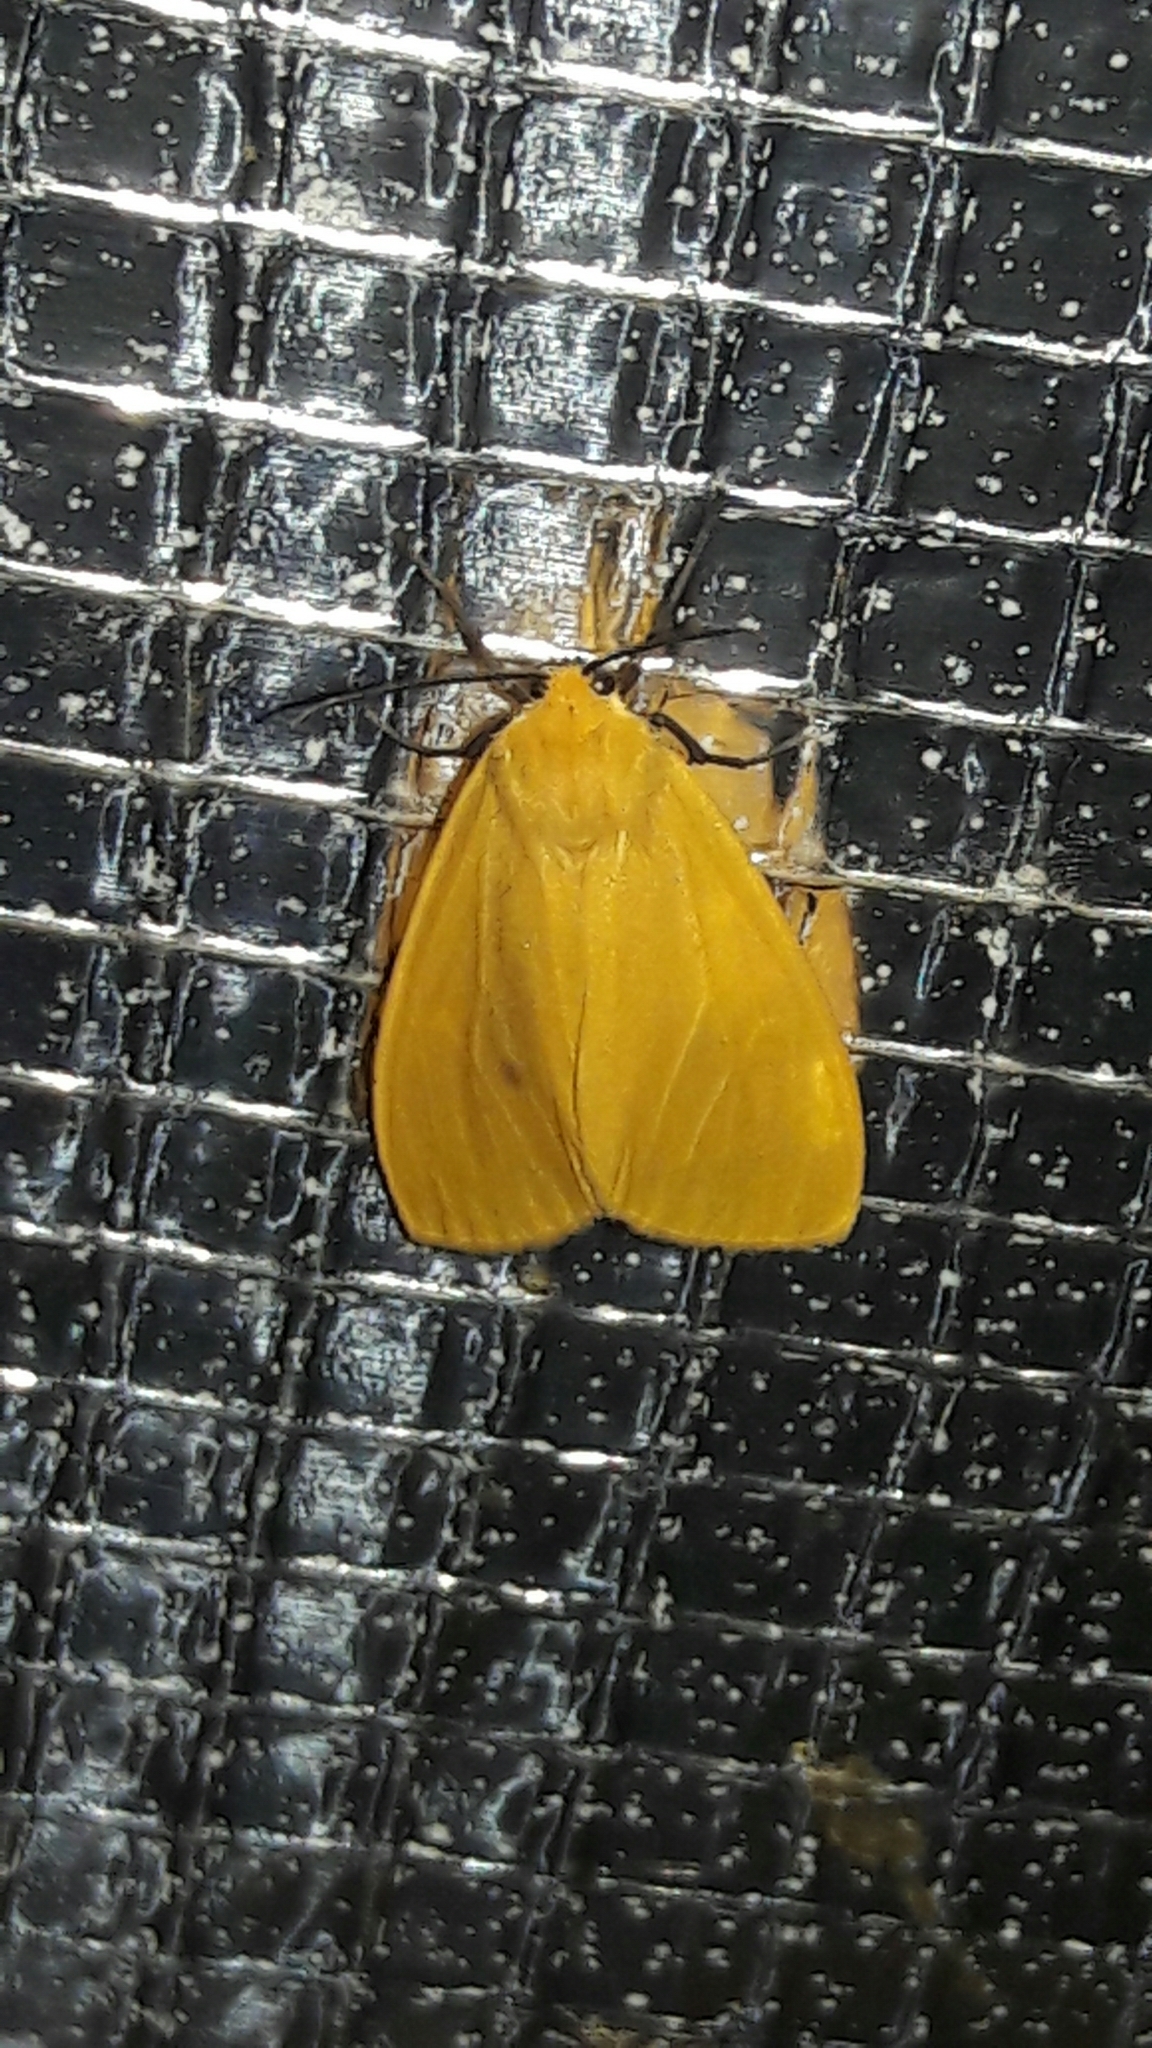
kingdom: Animalia
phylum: Arthropoda
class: Insecta
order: Lepidoptera
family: Erebidae
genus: Pareuchaetes
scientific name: Pareuchaetes aurata
